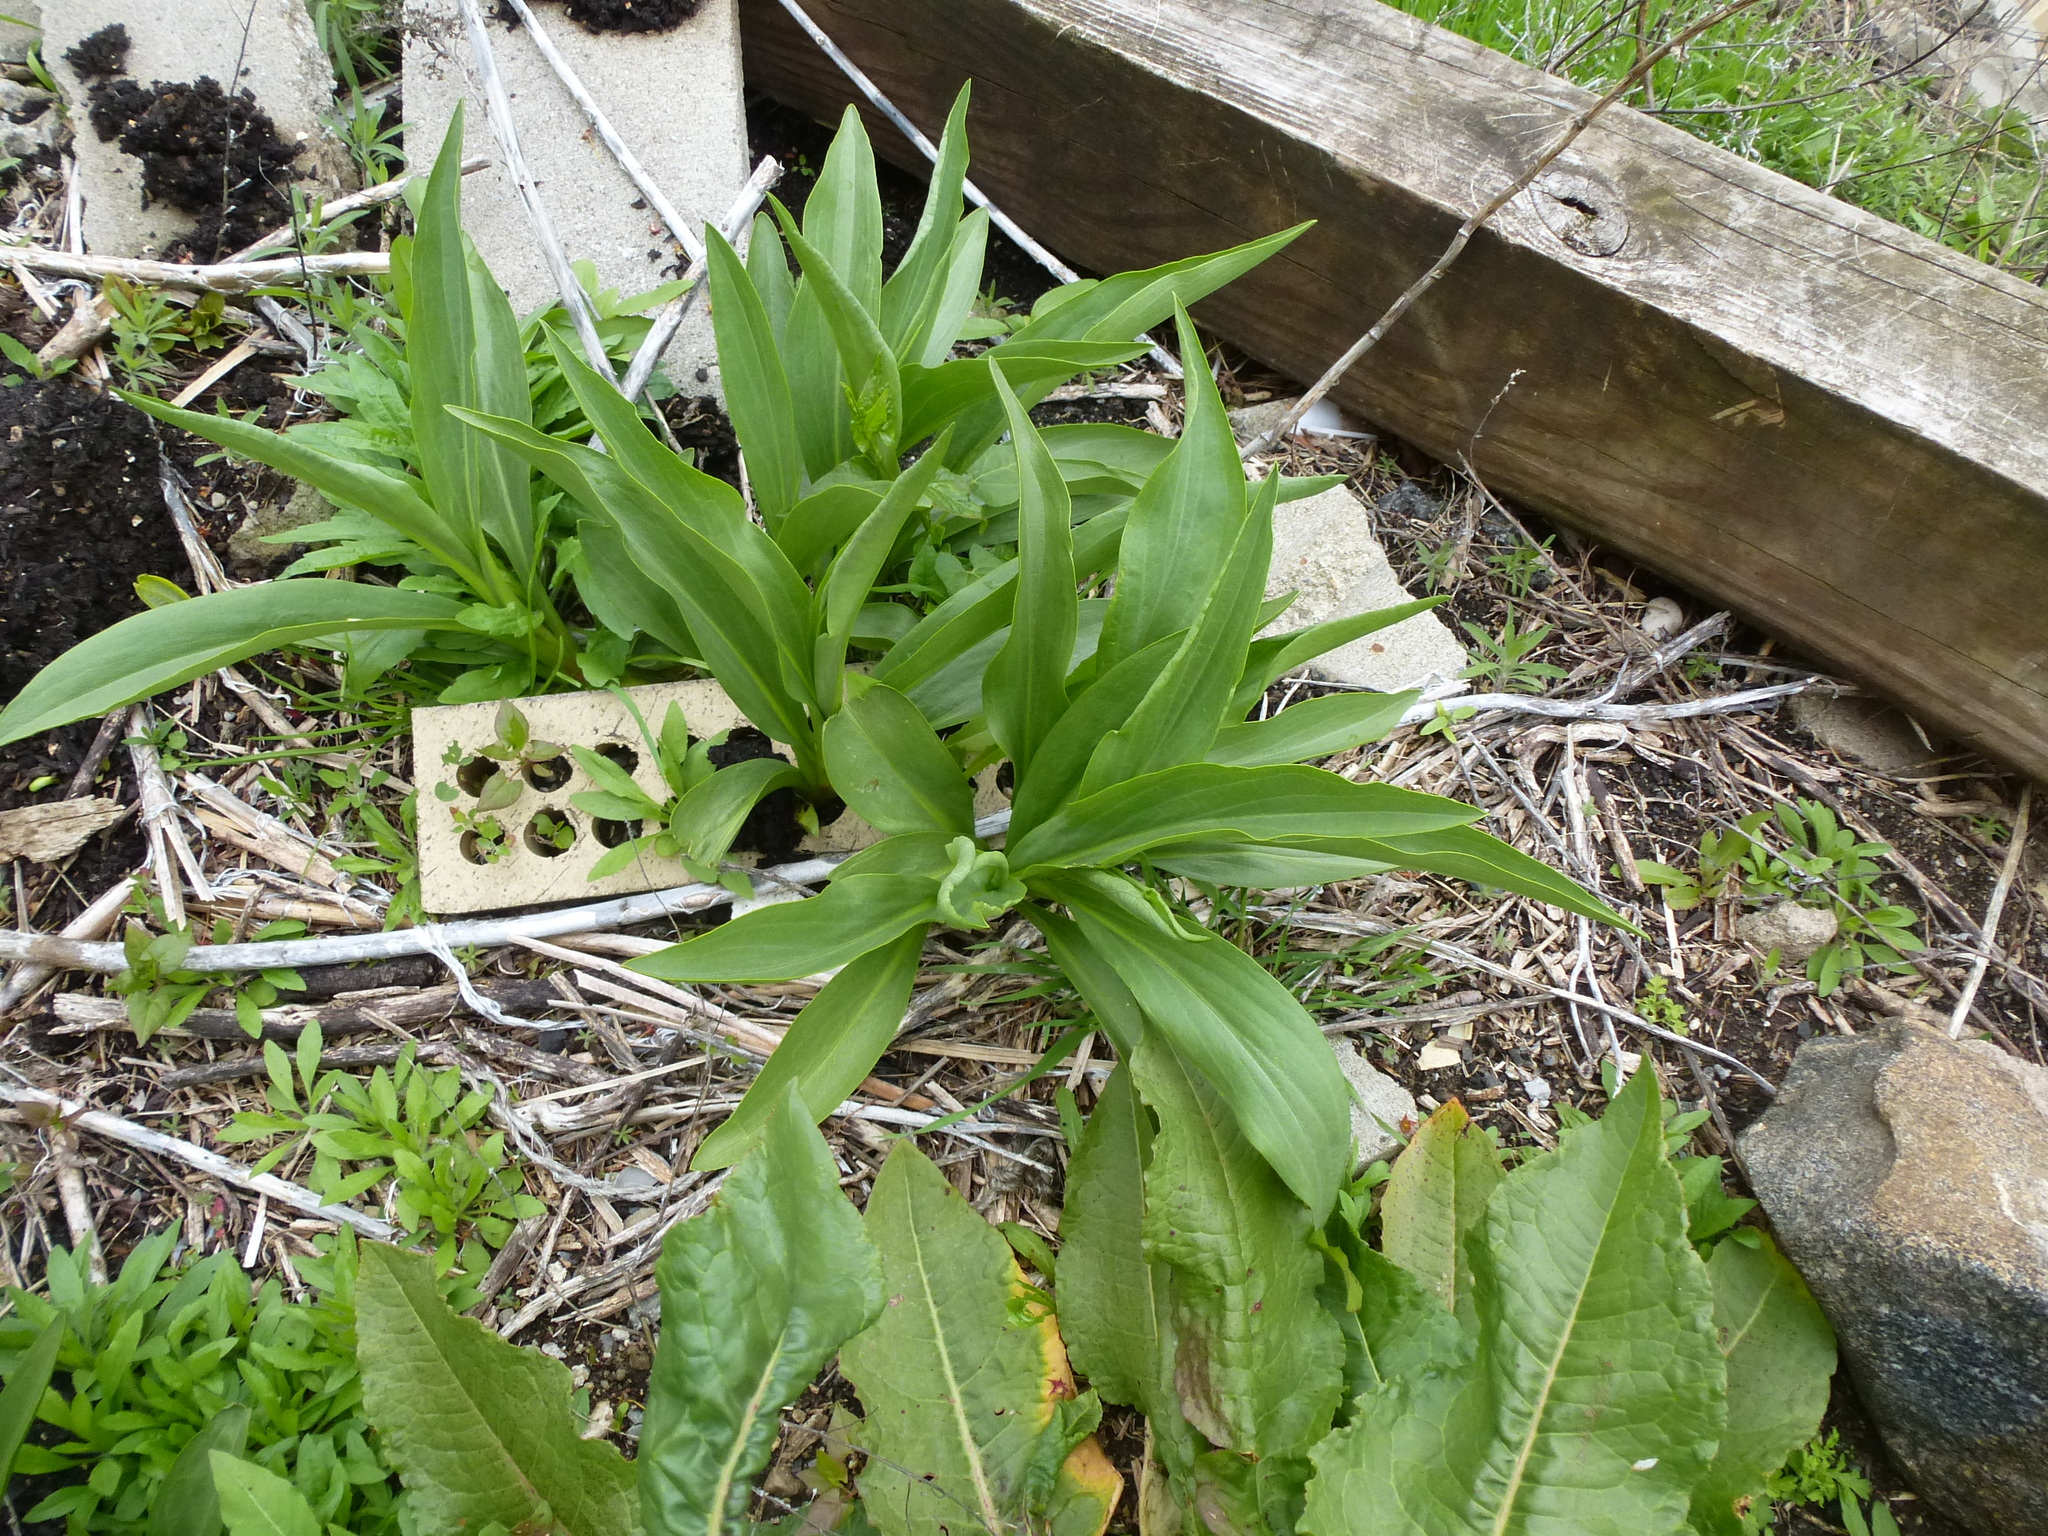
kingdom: Plantae
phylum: Tracheophyta
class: Magnoliopsida
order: Asterales
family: Asteraceae
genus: Solidago
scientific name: Solidago sempervirens
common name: Salt-marsh goldenrod
